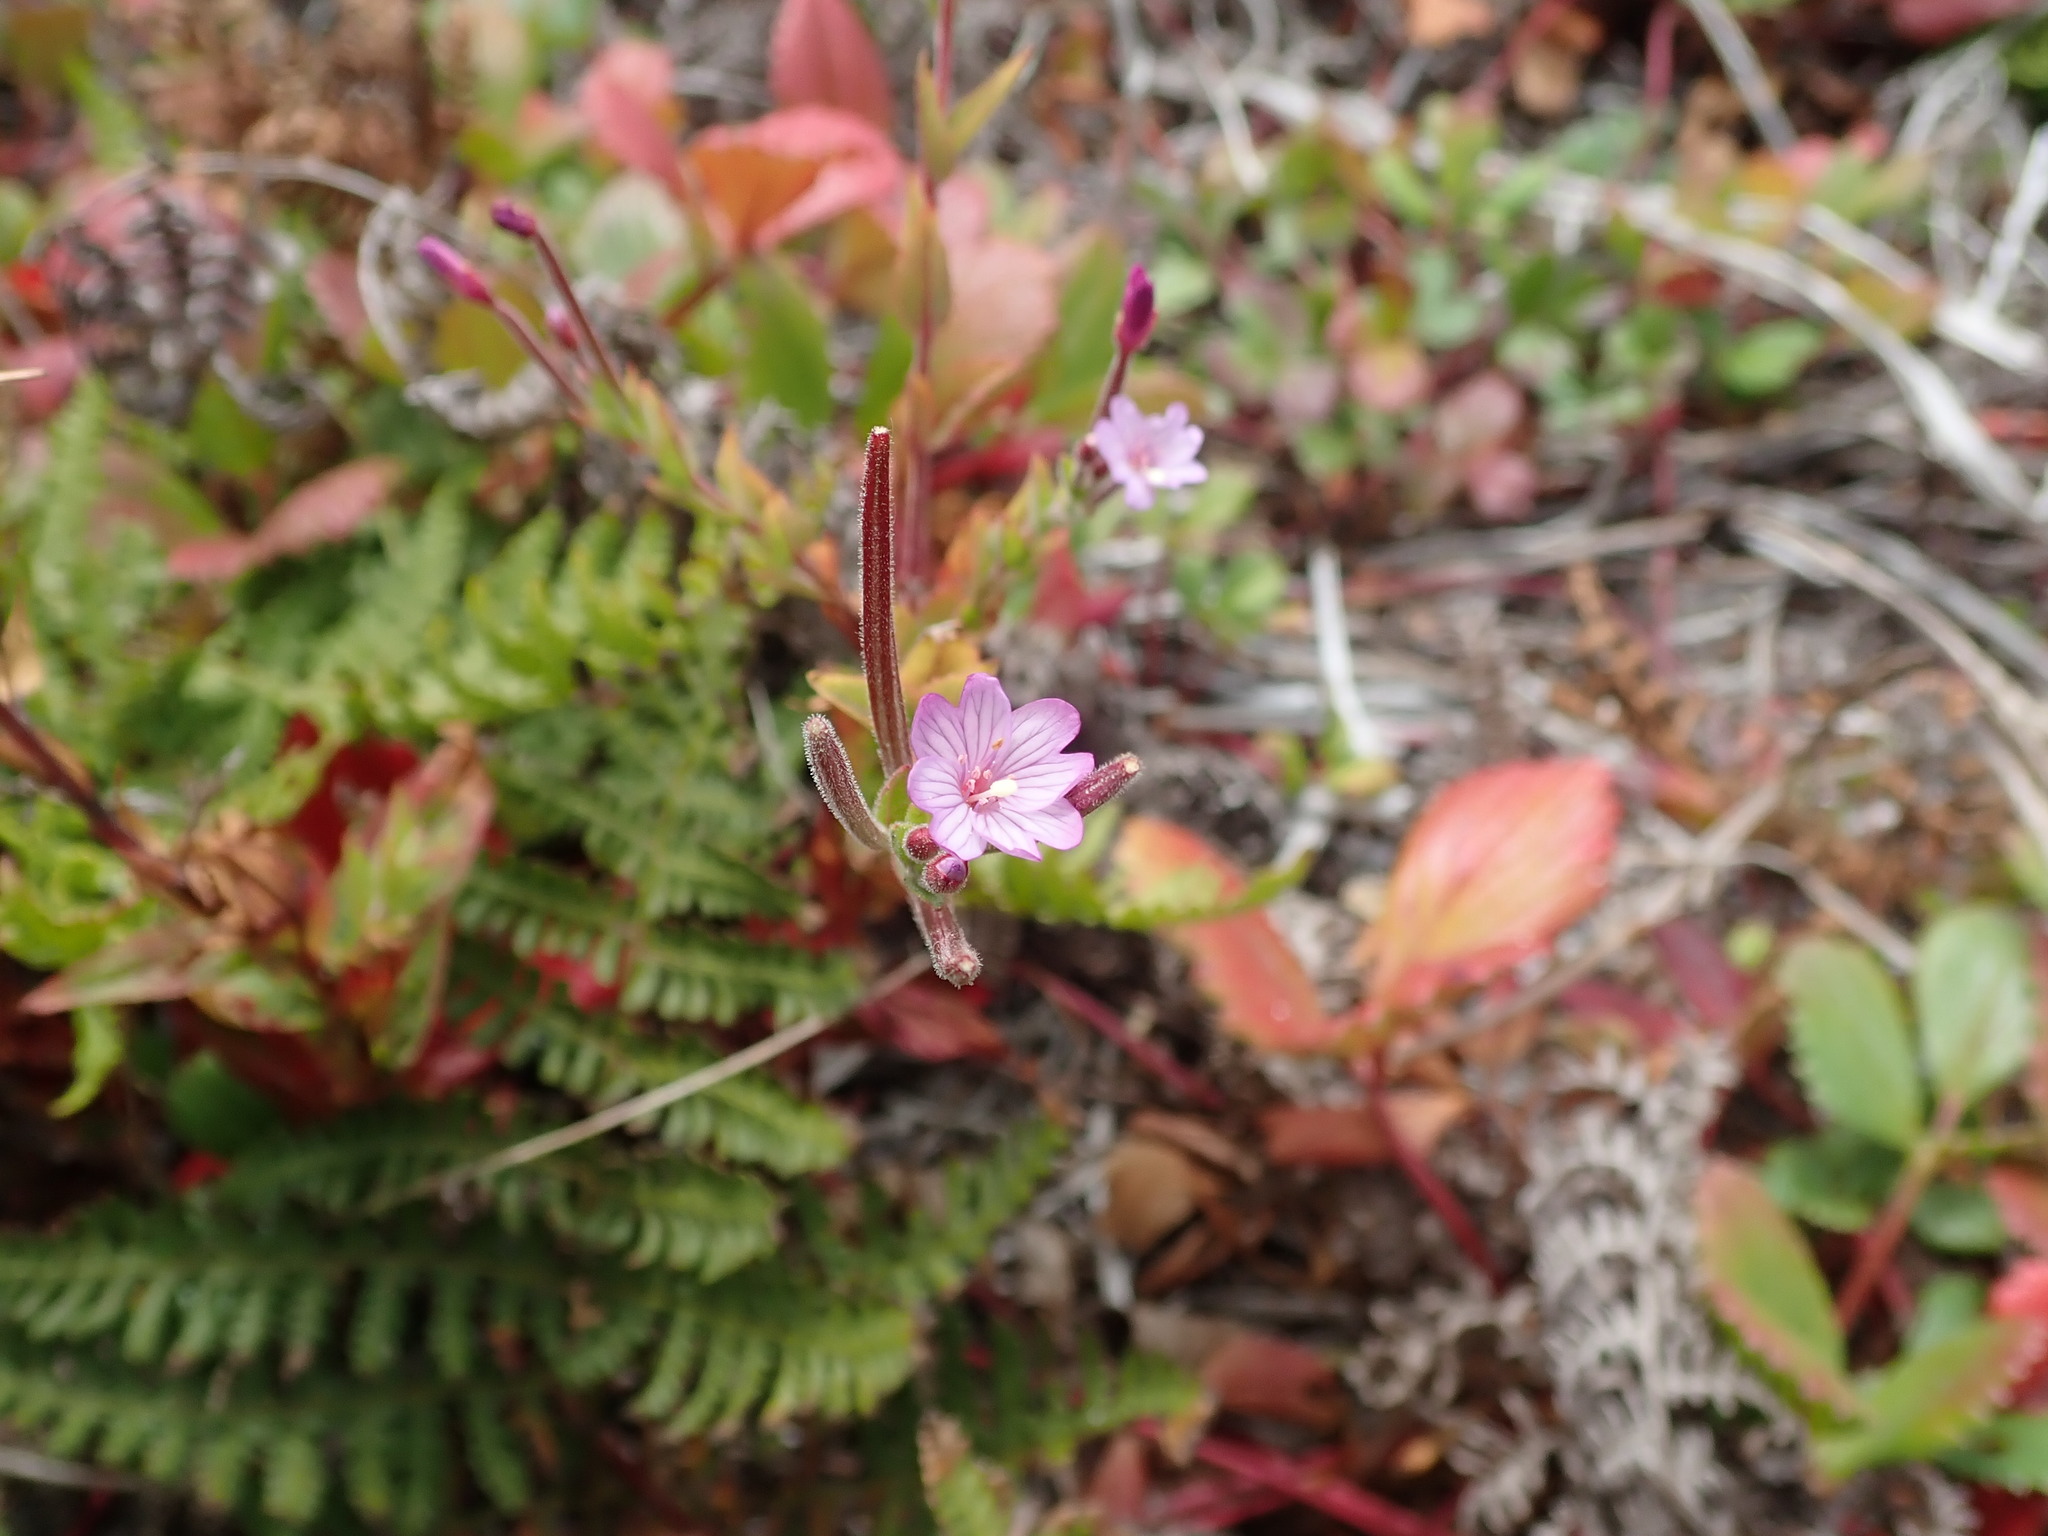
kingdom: Plantae
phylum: Tracheophyta
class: Magnoliopsida
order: Myrtales
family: Onagraceae
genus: Epilobium
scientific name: Epilobium ciliatum
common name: American willowherb
